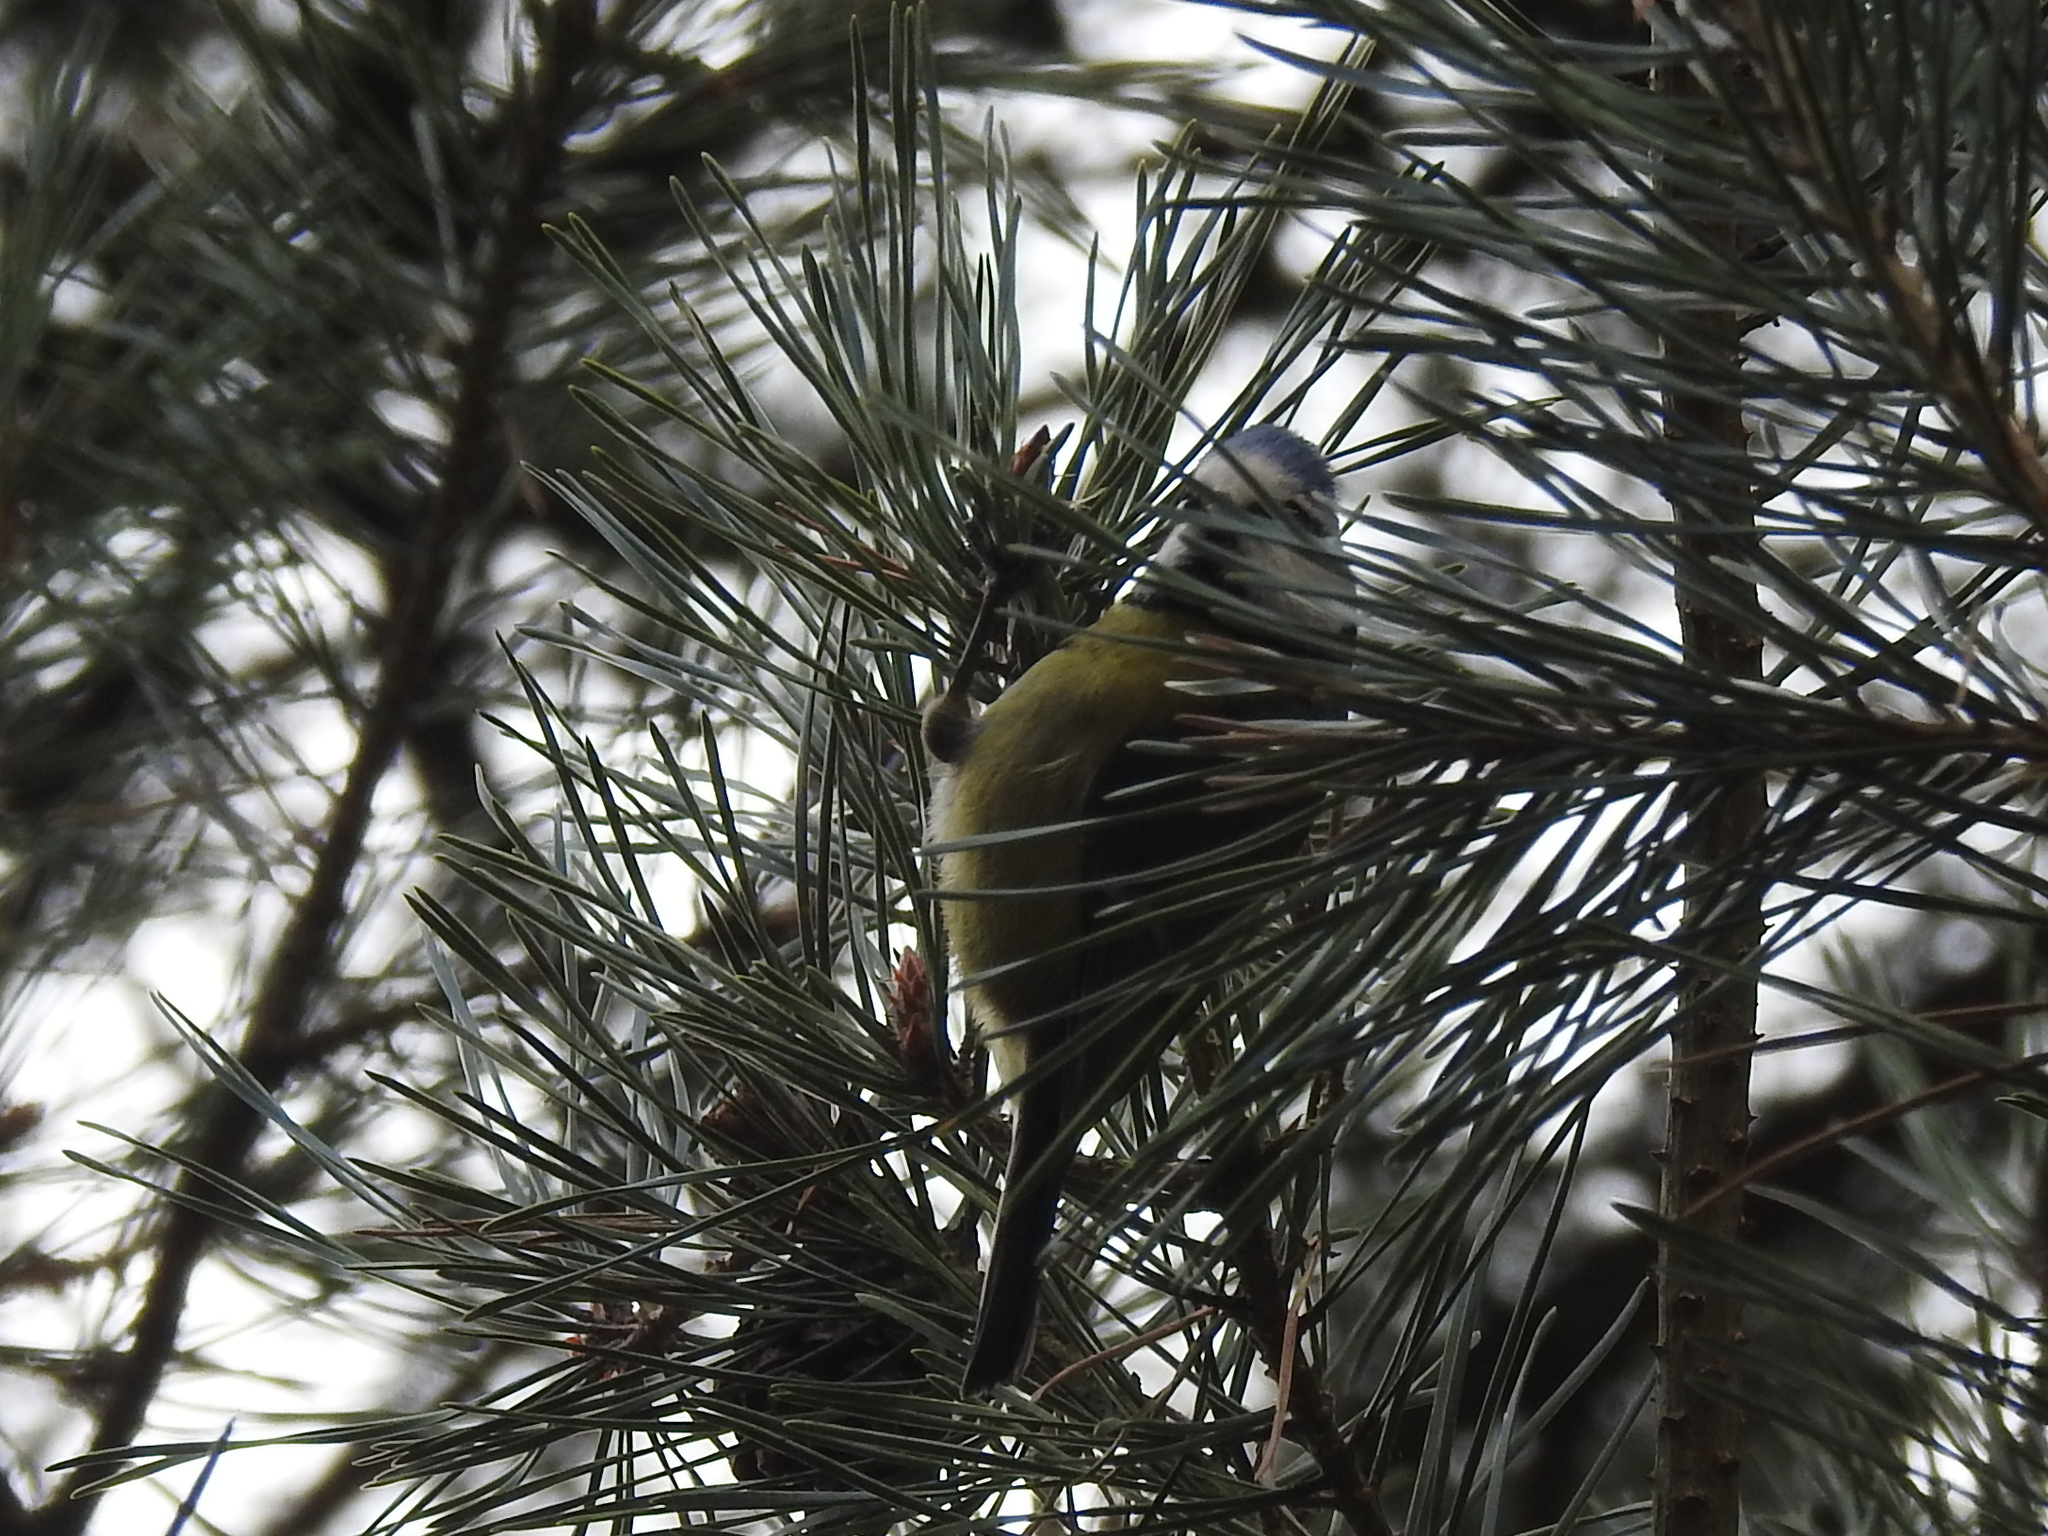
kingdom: Animalia
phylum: Chordata
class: Aves
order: Passeriformes
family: Paridae
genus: Cyanistes
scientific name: Cyanistes caeruleus
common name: Eurasian blue tit
